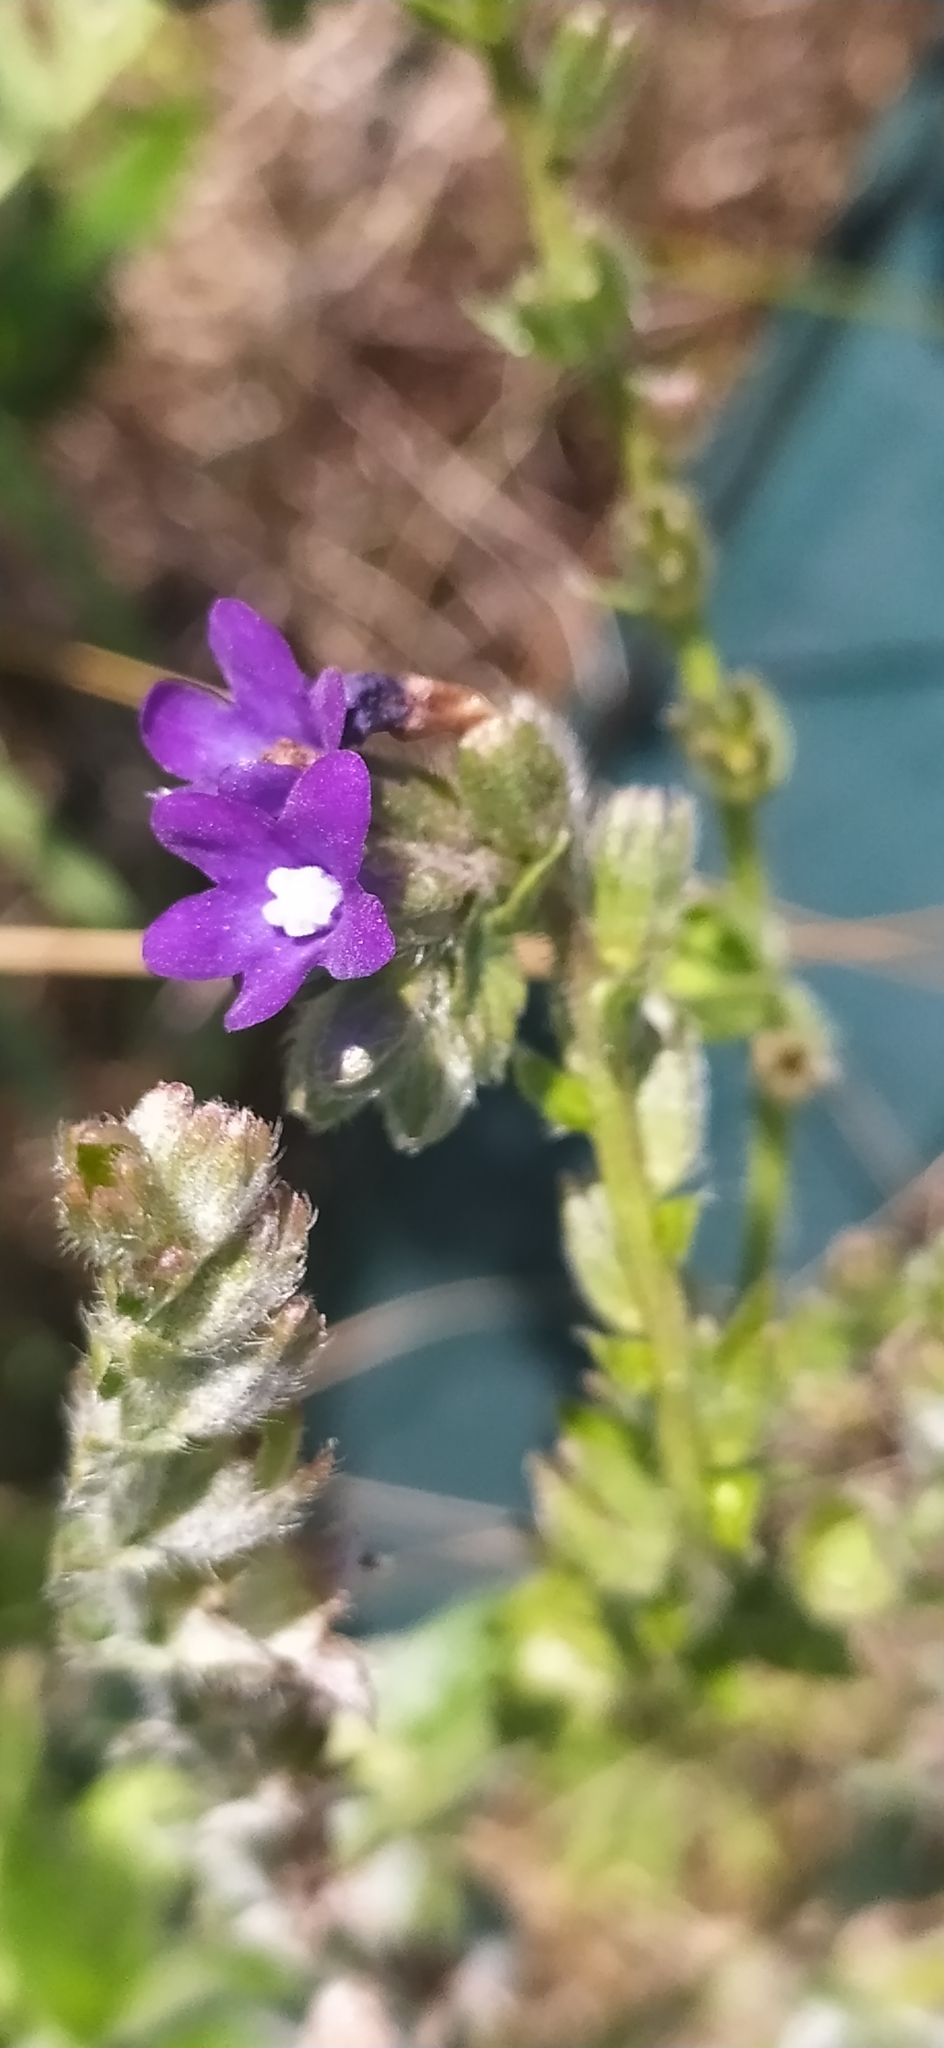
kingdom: Plantae
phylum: Tracheophyta
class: Magnoliopsida
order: Boraginales
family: Boraginaceae
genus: Anchusa
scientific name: Anchusa officinalis
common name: Alkanet
